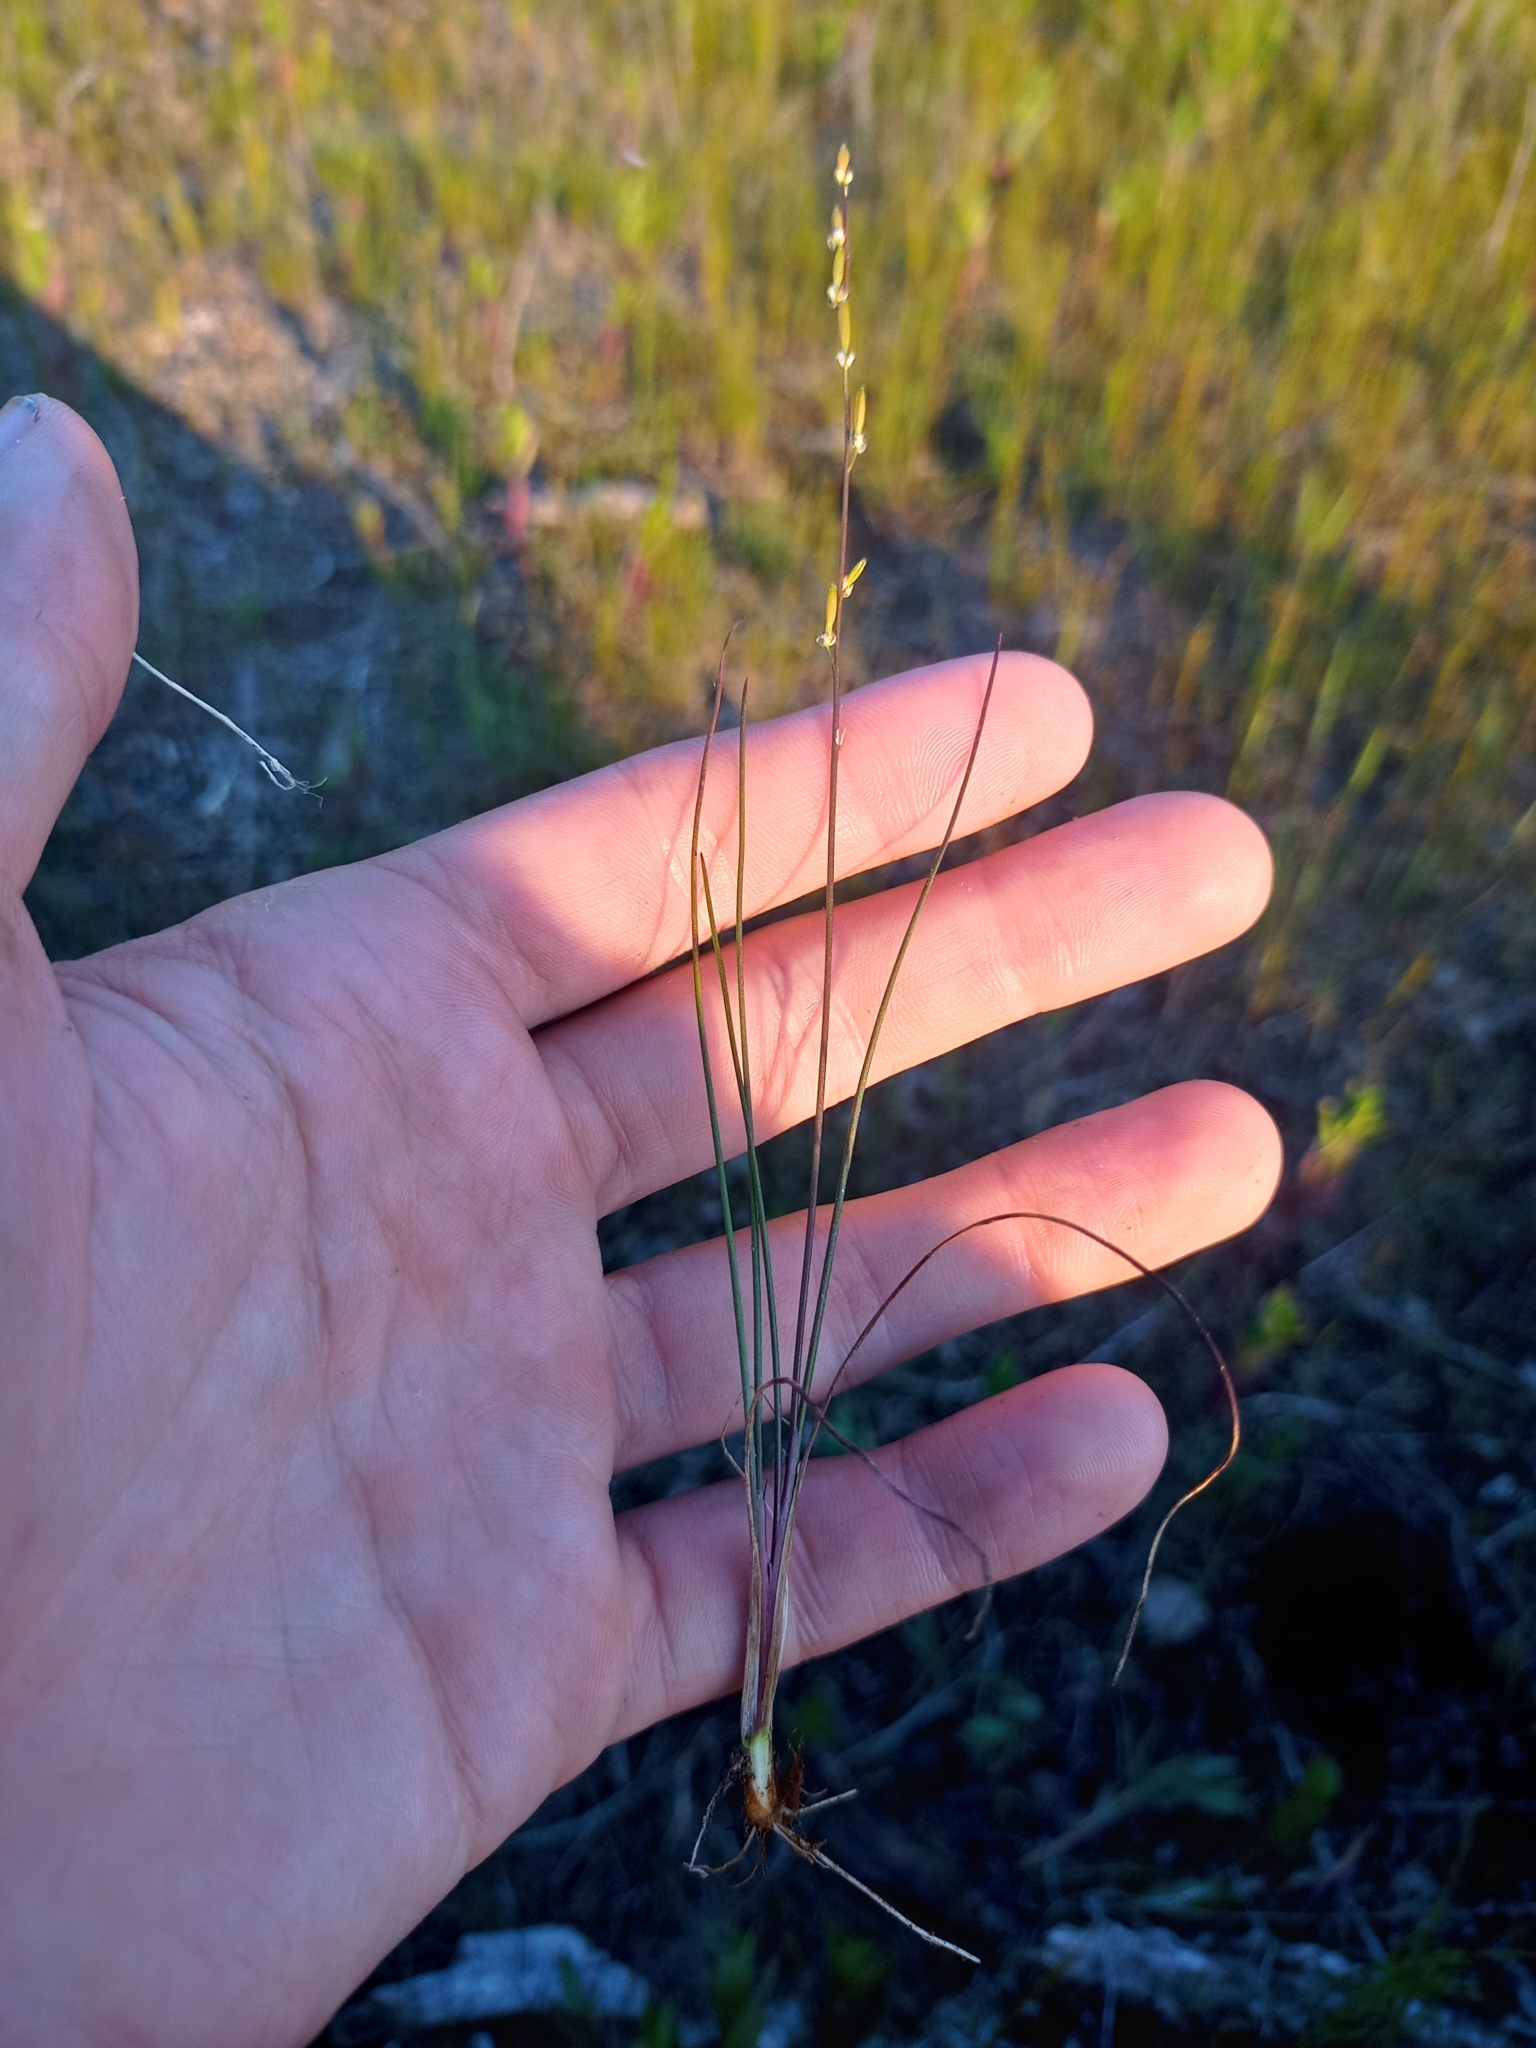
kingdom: Plantae
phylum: Tracheophyta
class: Liliopsida
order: Alismatales
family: Juncaginaceae
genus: Triglochin
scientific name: Triglochin palustris
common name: Marsh arrowgrass
